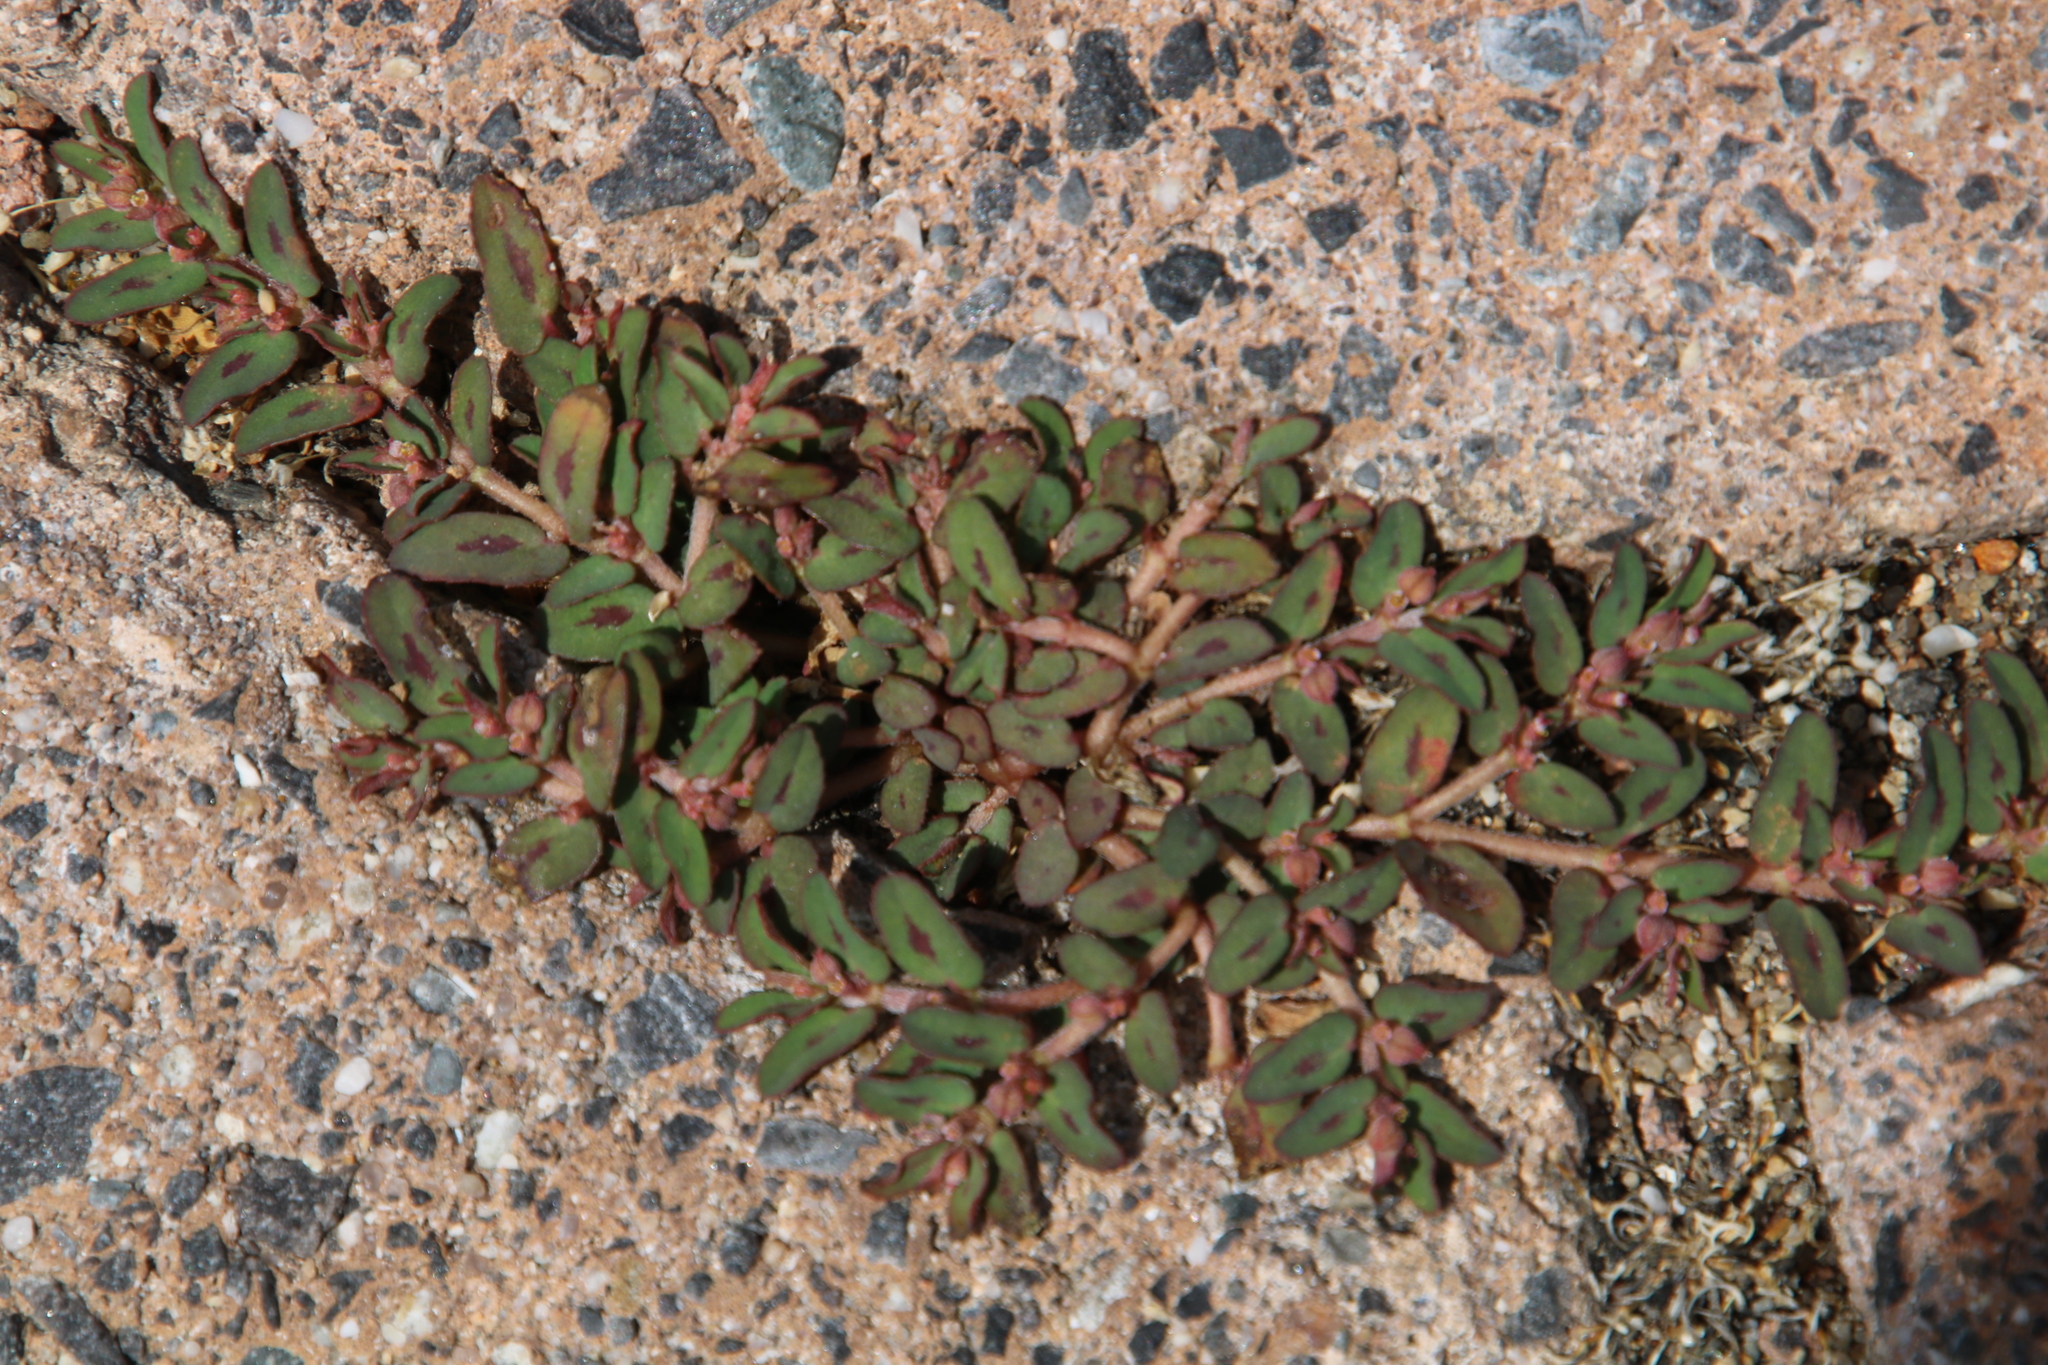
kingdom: Plantae
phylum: Tracheophyta
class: Magnoliopsida
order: Malpighiales
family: Euphorbiaceae
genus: Euphorbia
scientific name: Euphorbia maculata
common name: Spotted spurge
